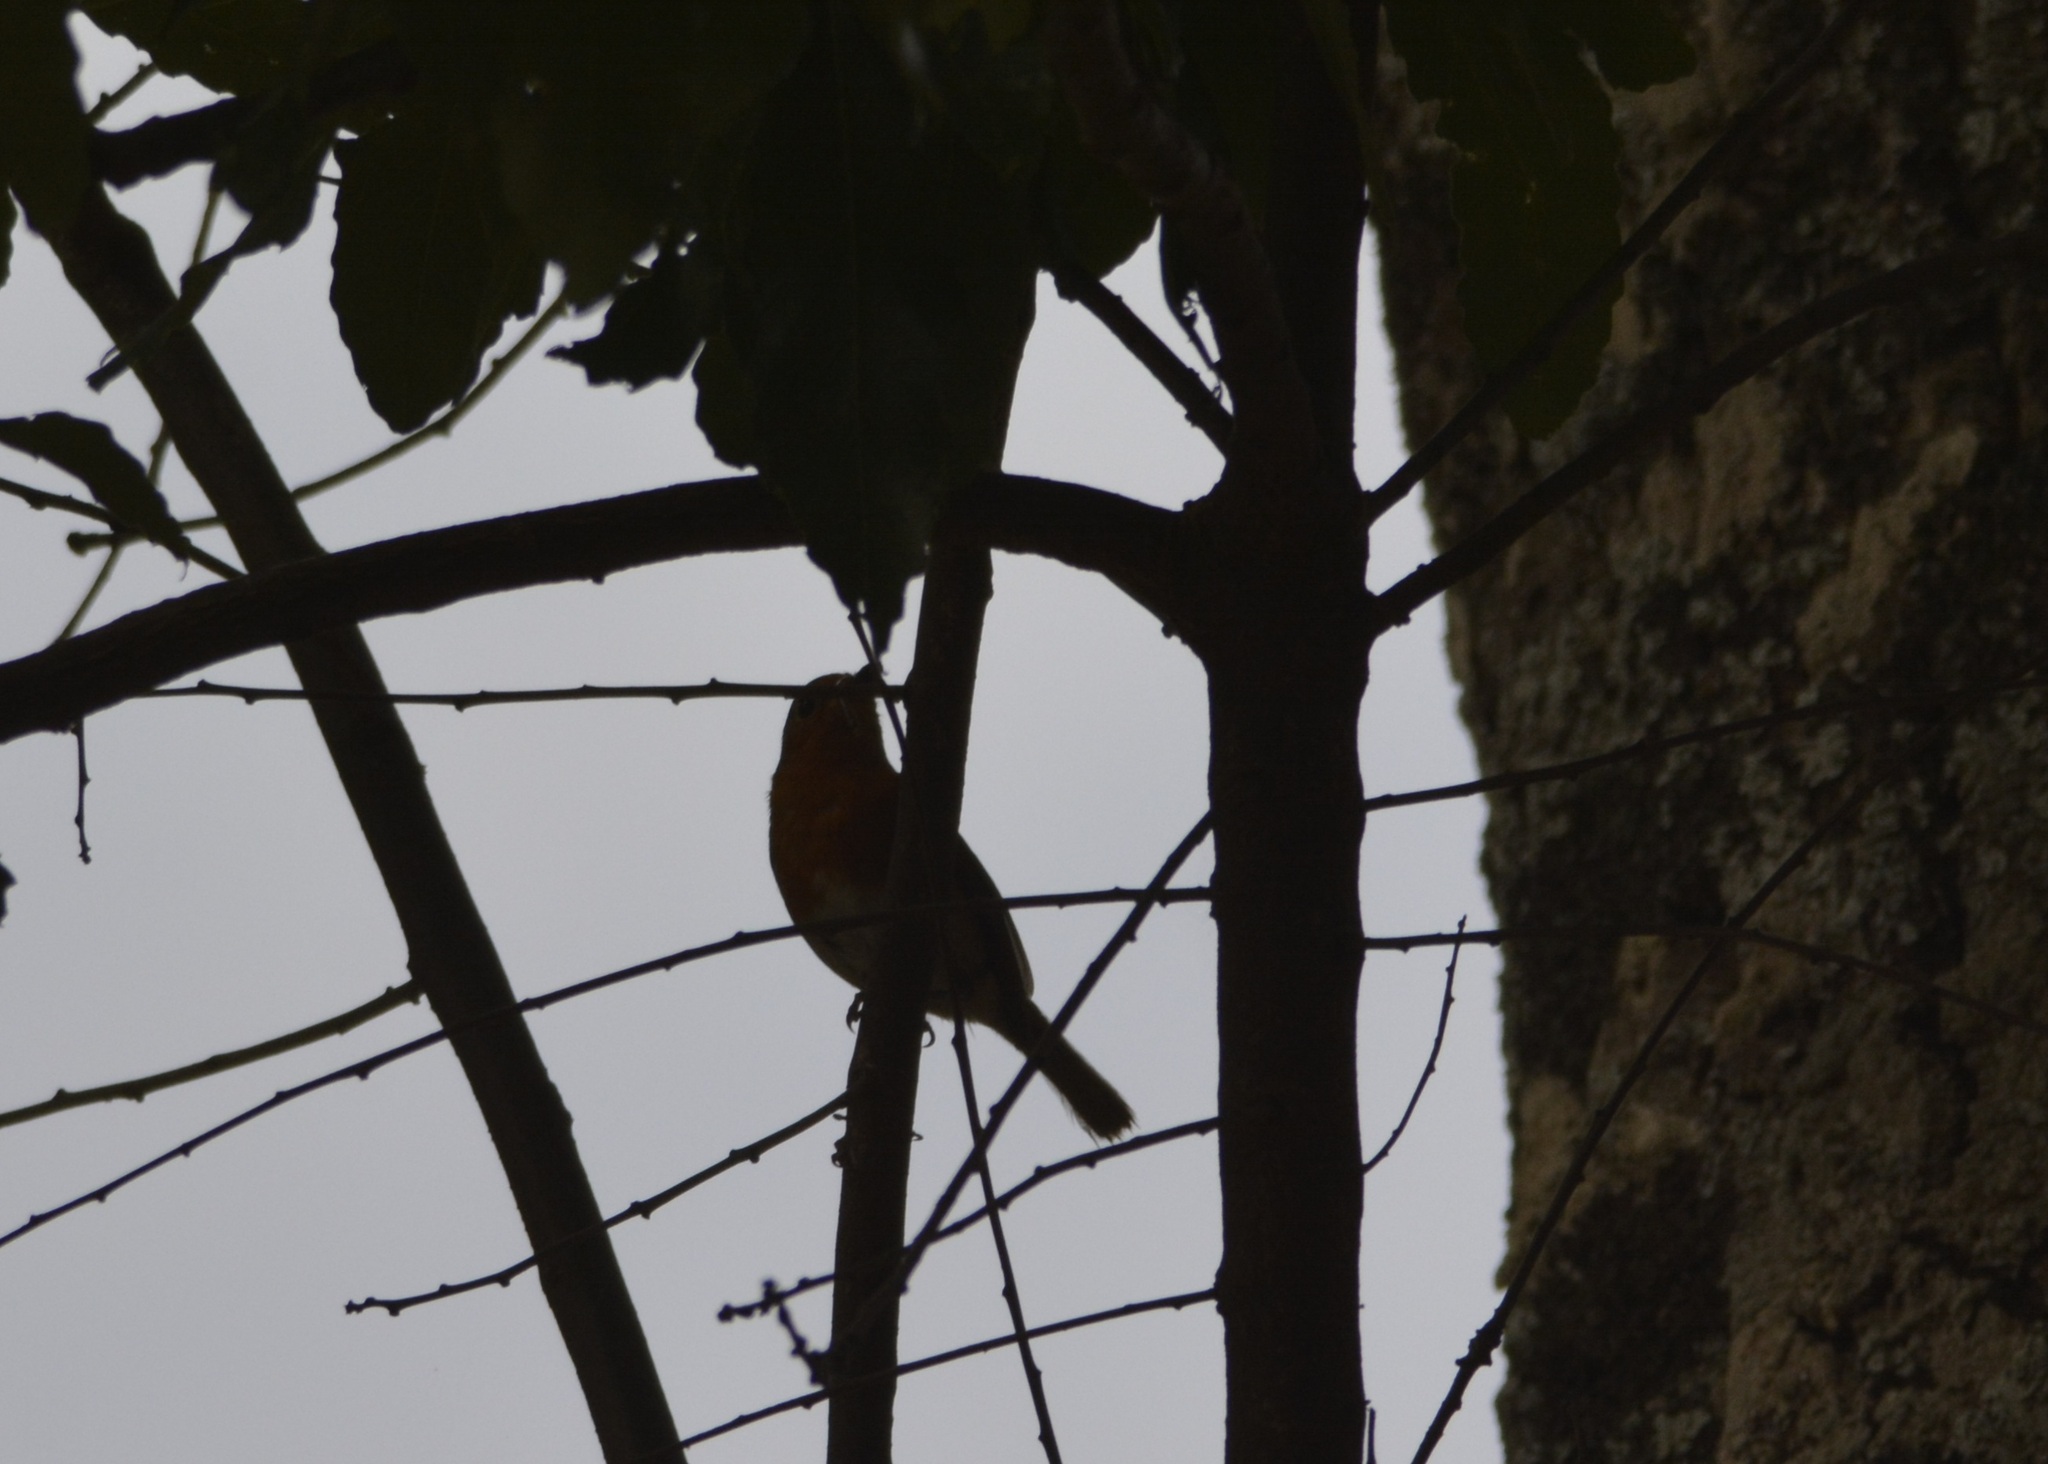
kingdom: Animalia
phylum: Chordata
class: Aves
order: Passeriformes
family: Muscicapidae
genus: Erithacus
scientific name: Erithacus rubecula
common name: European robin
